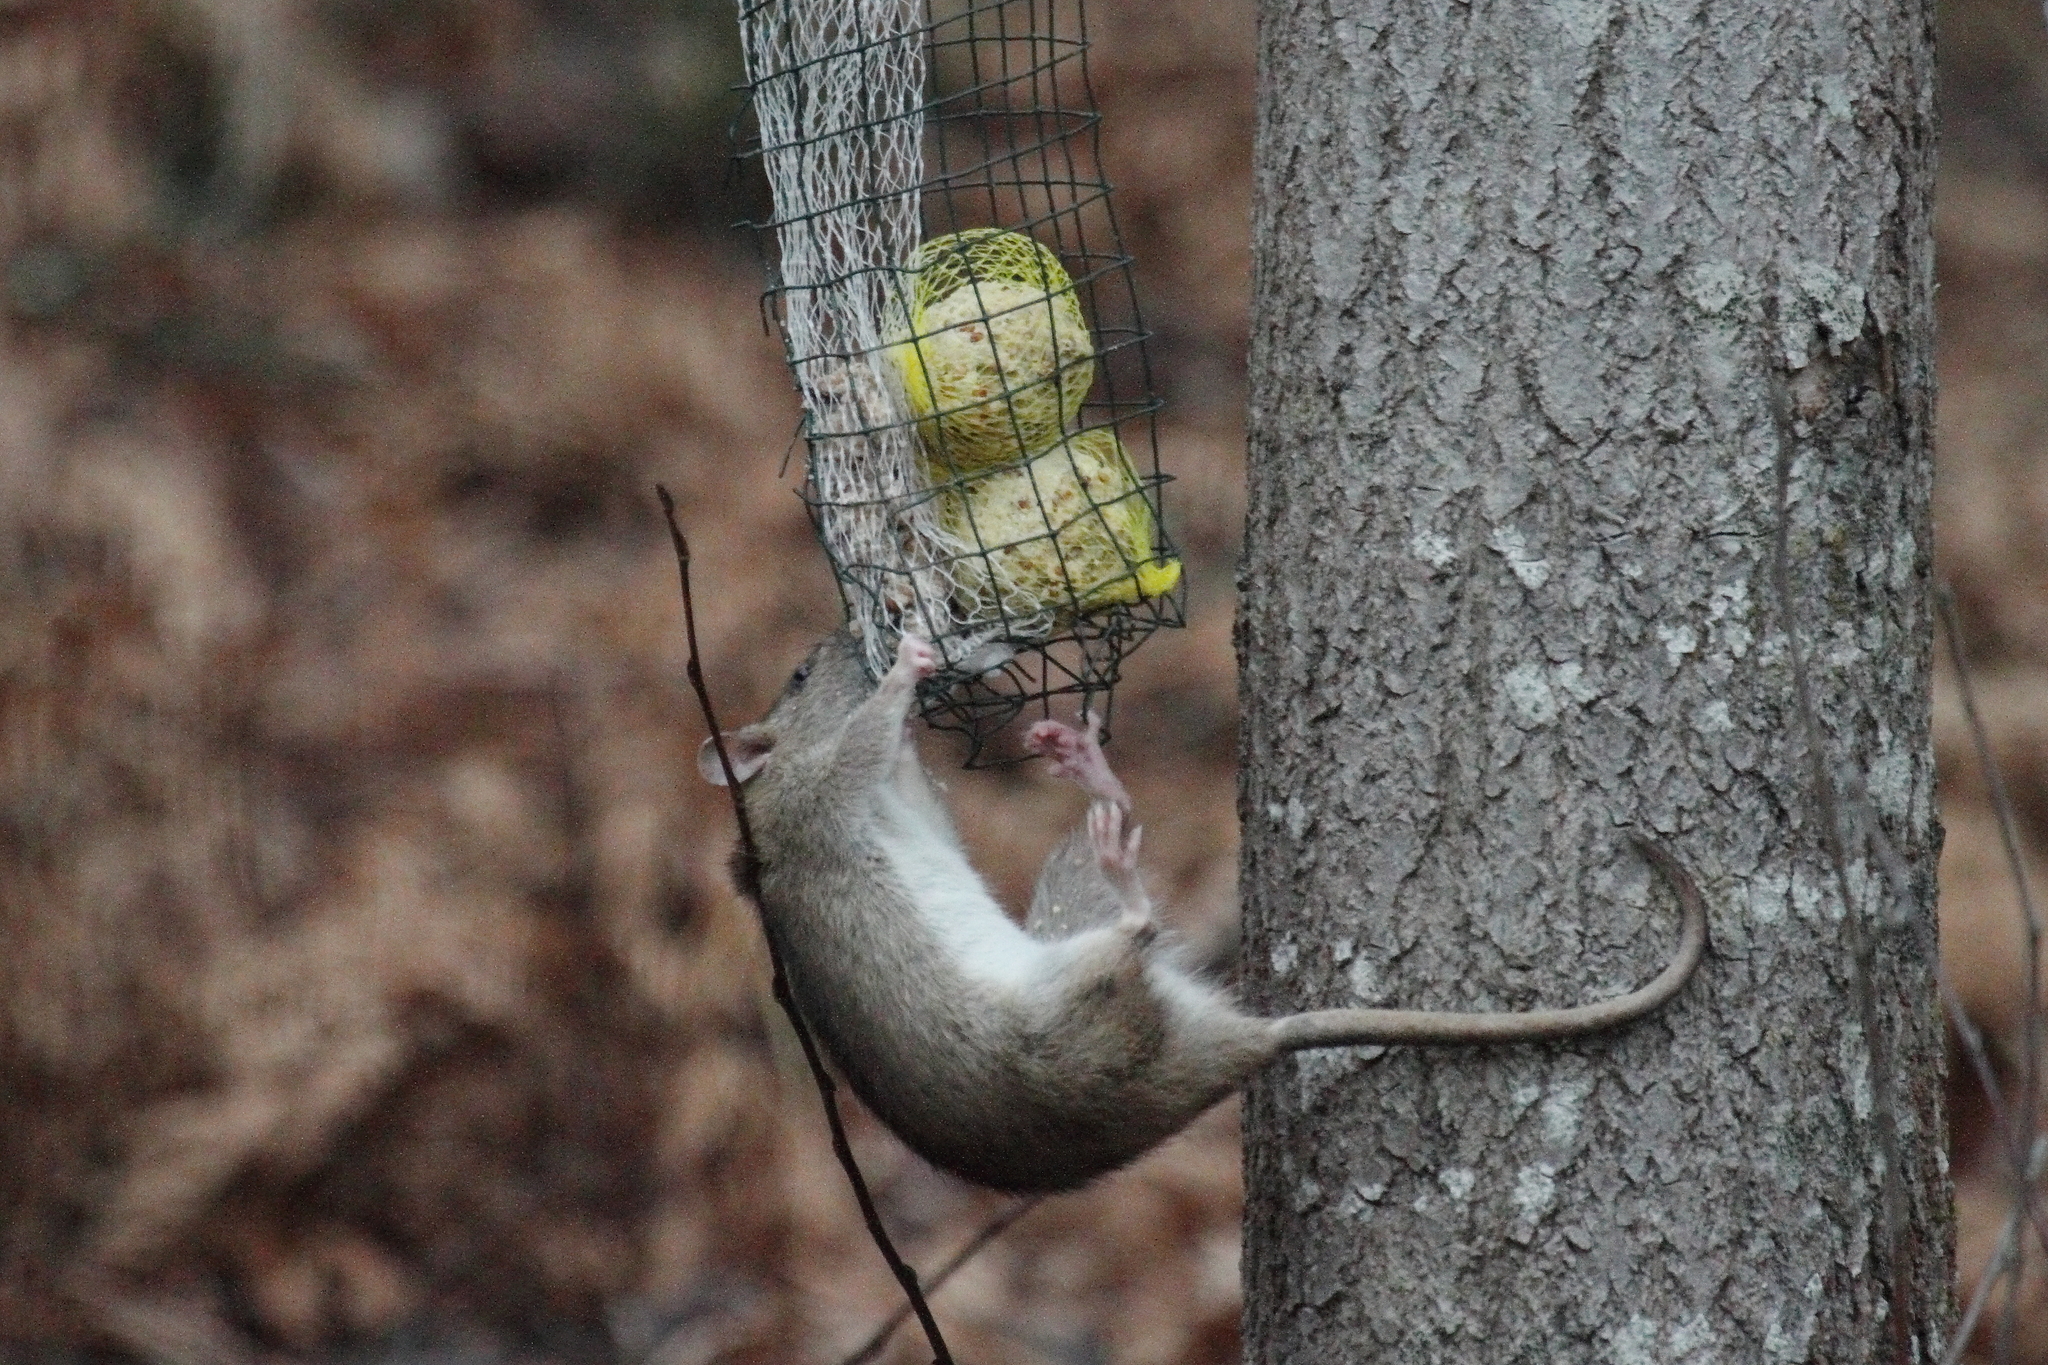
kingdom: Animalia
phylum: Chordata
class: Mammalia
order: Rodentia
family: Muridae
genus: Rattus
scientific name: Rattus norvegicus
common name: Brown rat
